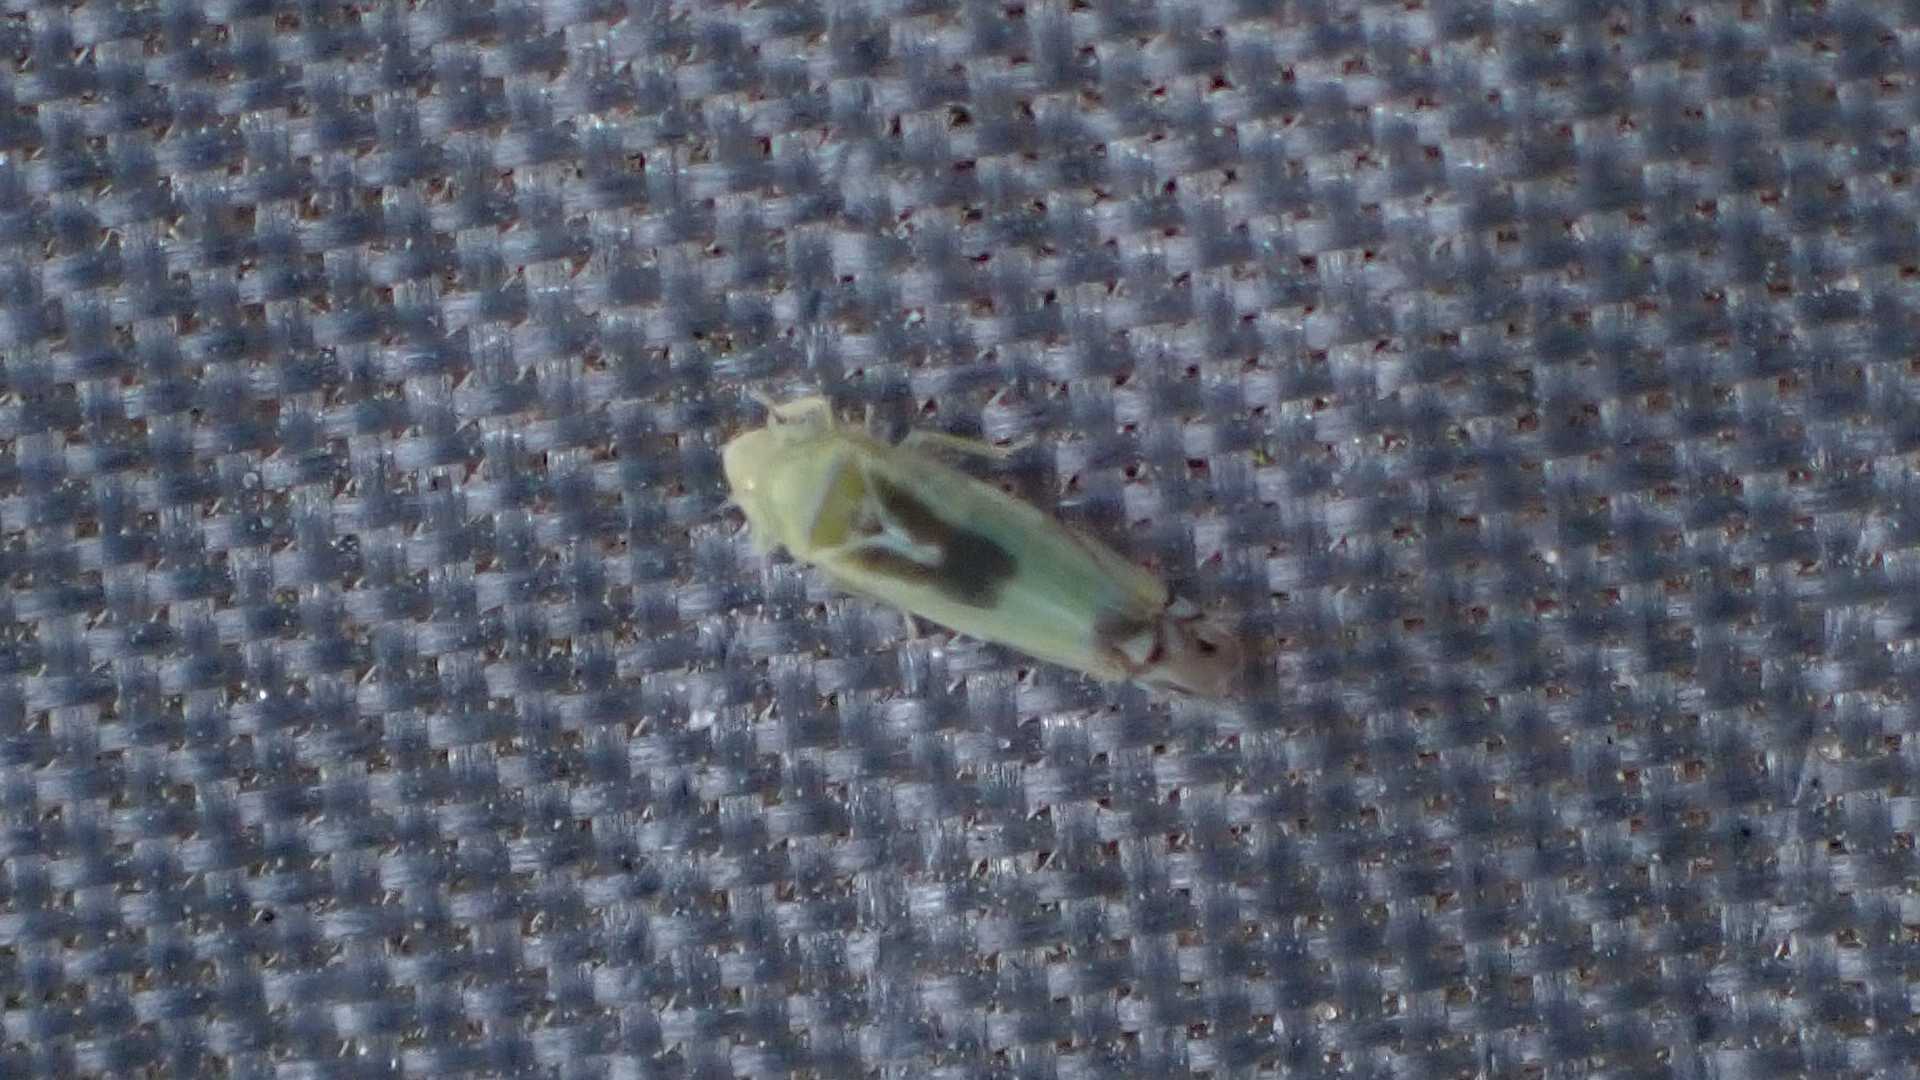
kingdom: Animalia
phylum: Arthropoda
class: Insecta
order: Hemiptera
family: Cicadellidae
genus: Zyginella
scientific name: Zyginella pulchra
